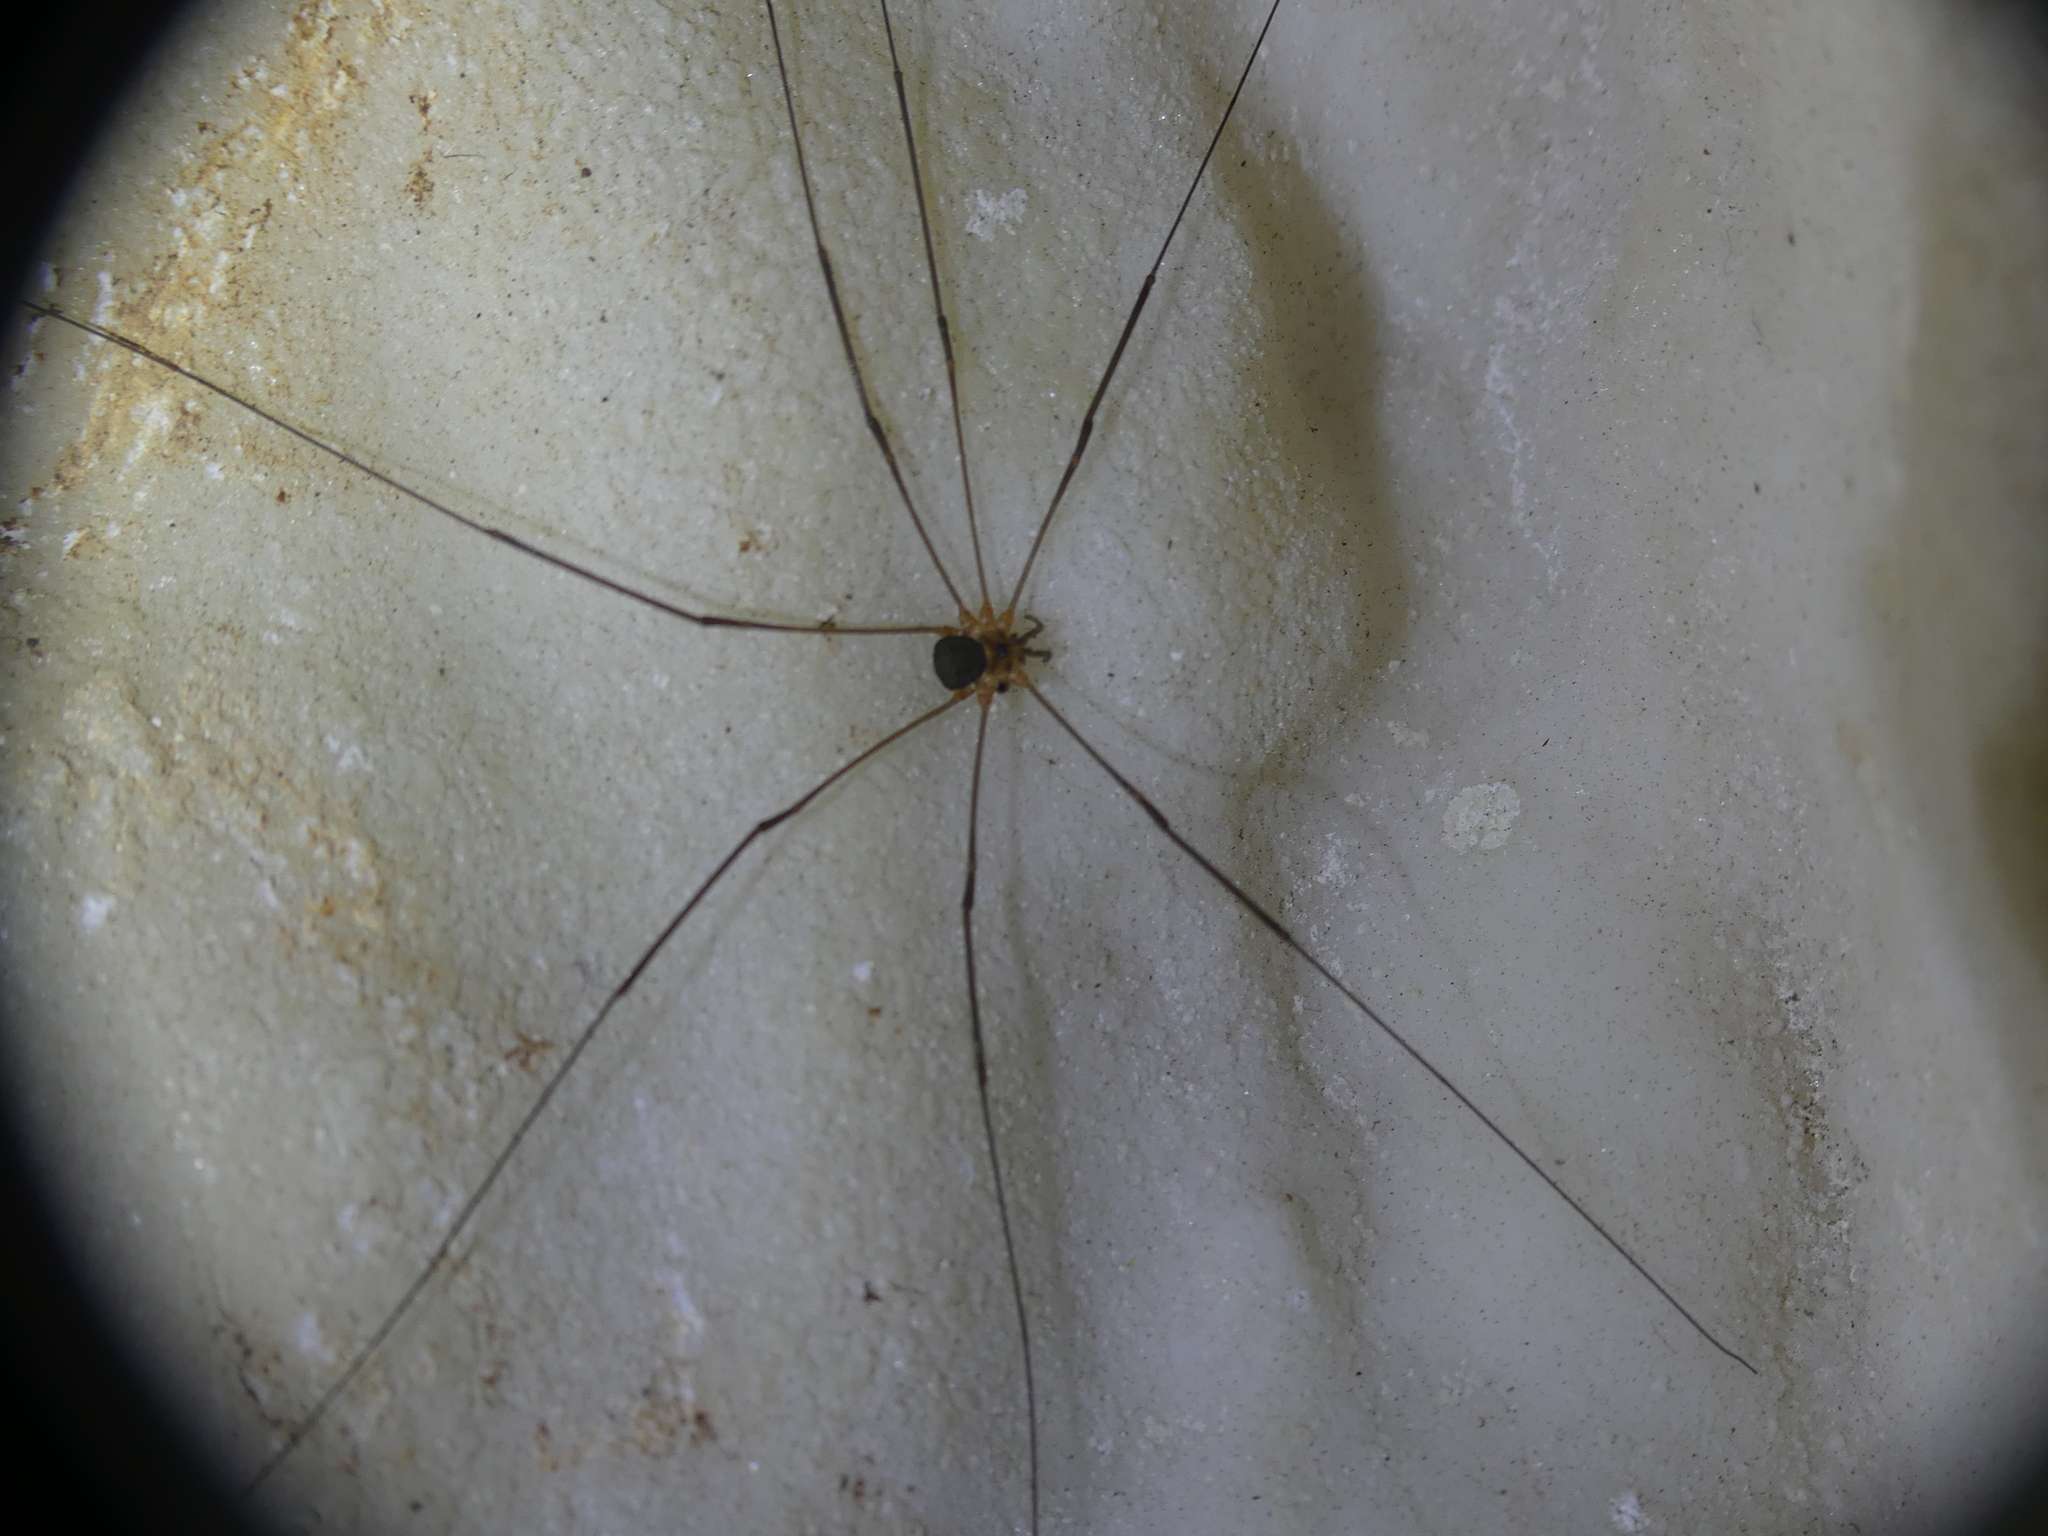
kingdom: Animalia
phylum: Arthropoda
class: Arachnida
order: Opiliones
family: Phalangiidae
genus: Amilenus
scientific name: Amilenus aurantiacus
